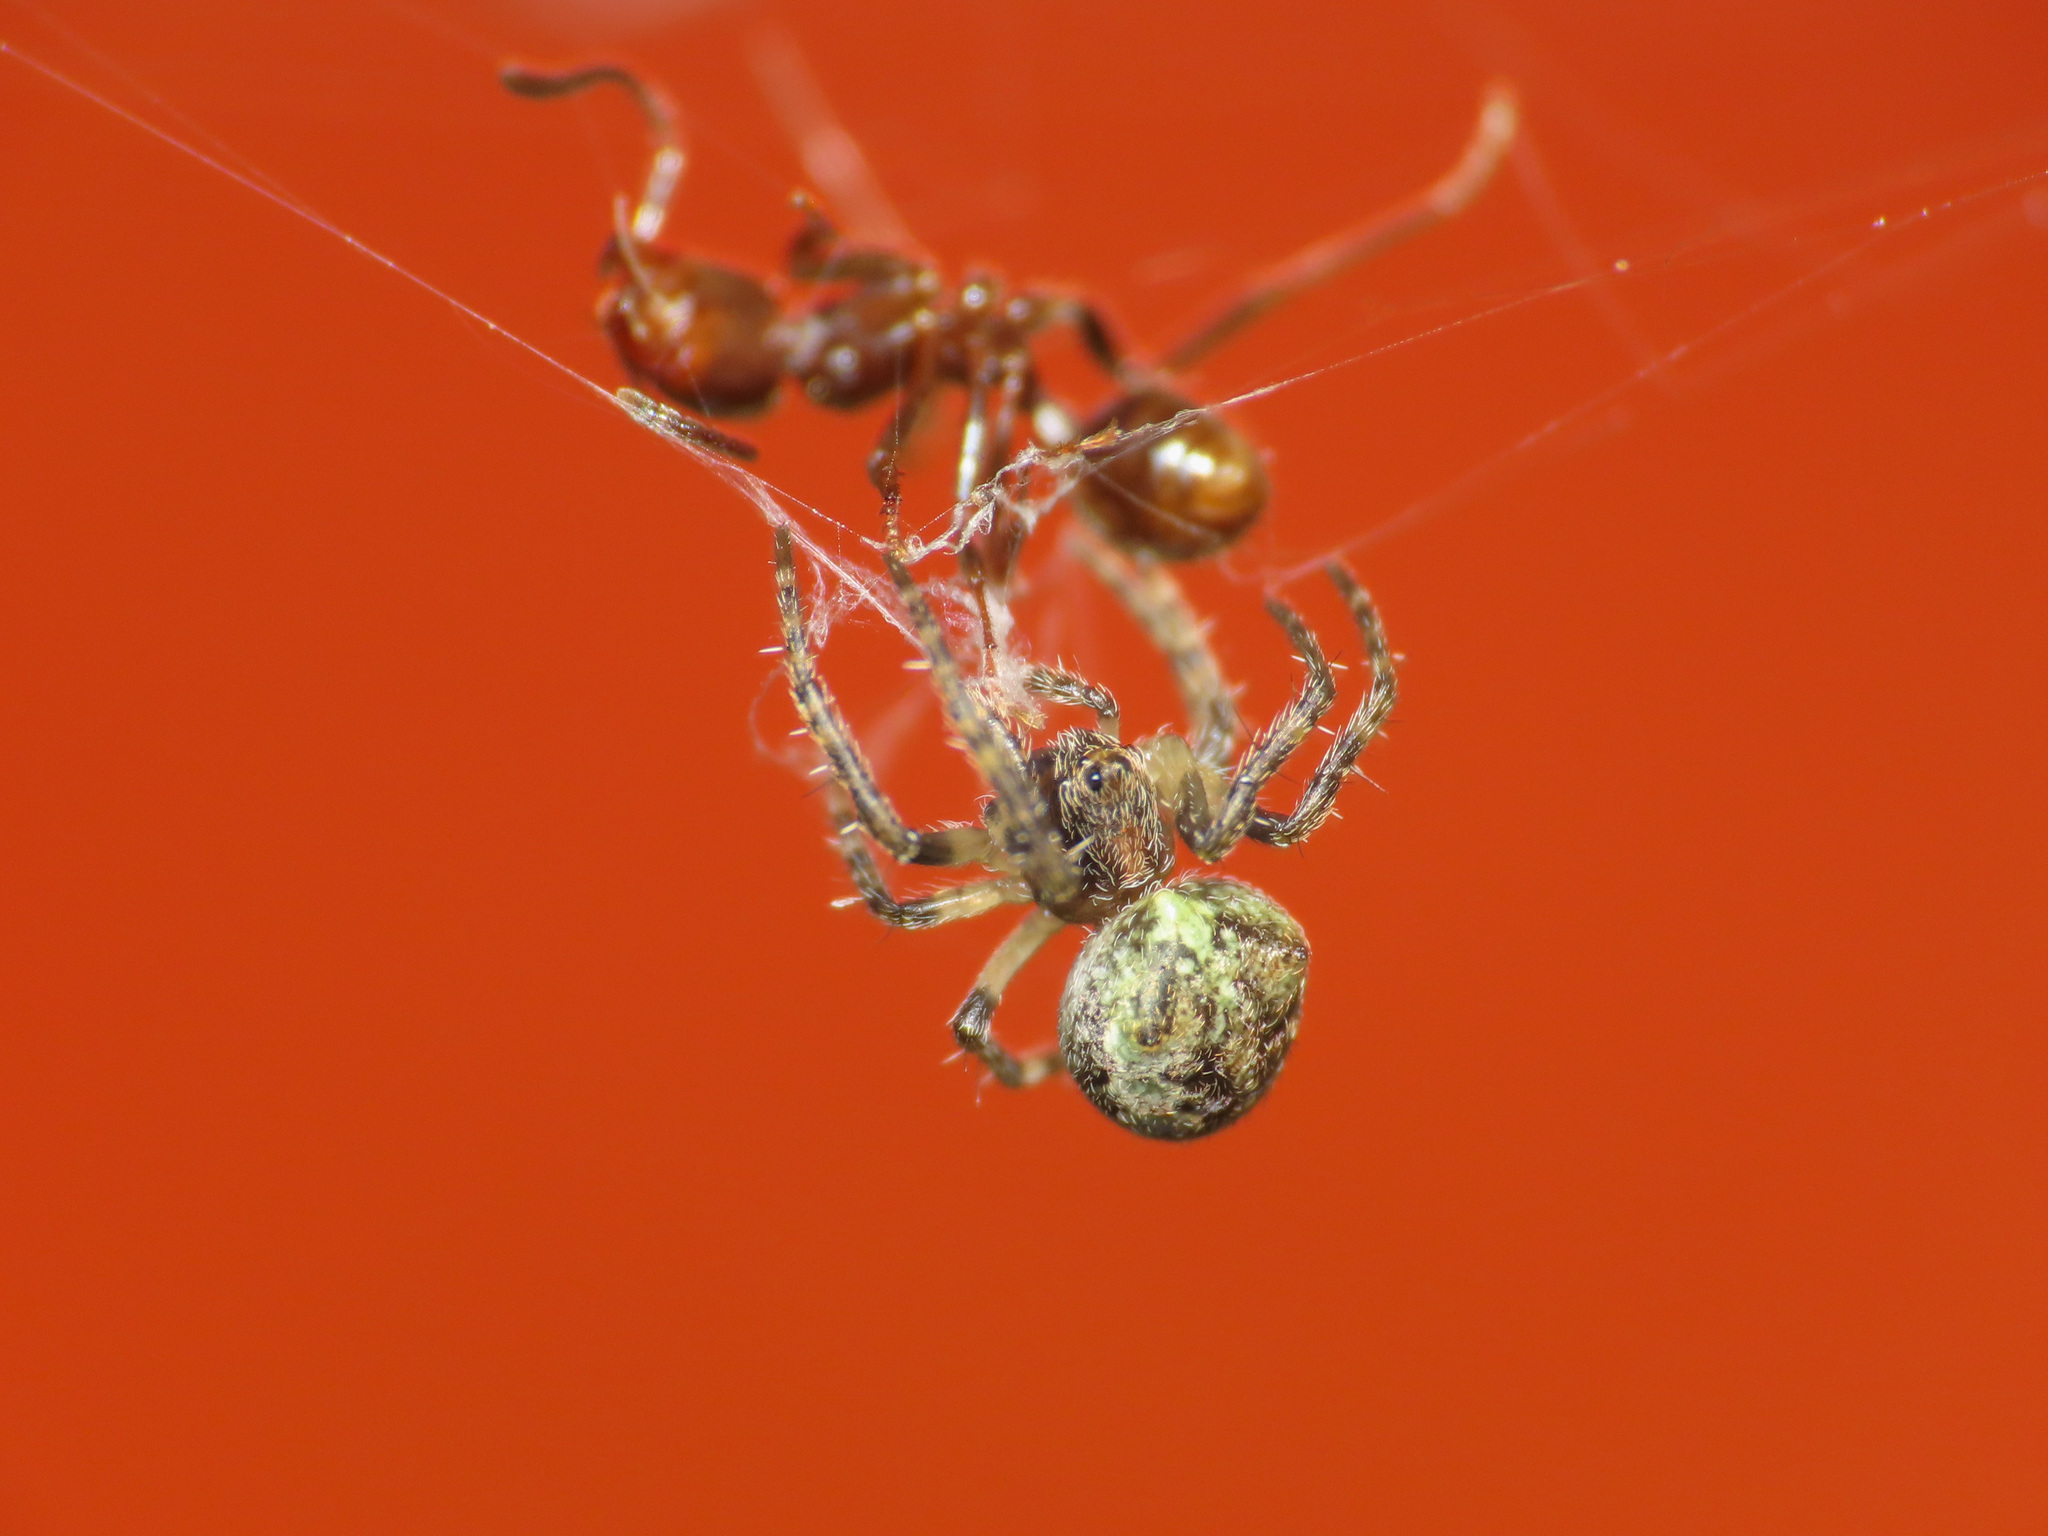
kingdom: Animalia
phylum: Arthropoda
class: Arachnida
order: Araneae
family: Araneidae
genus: Gibbaranea
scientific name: Gibbaranea gibbosa
